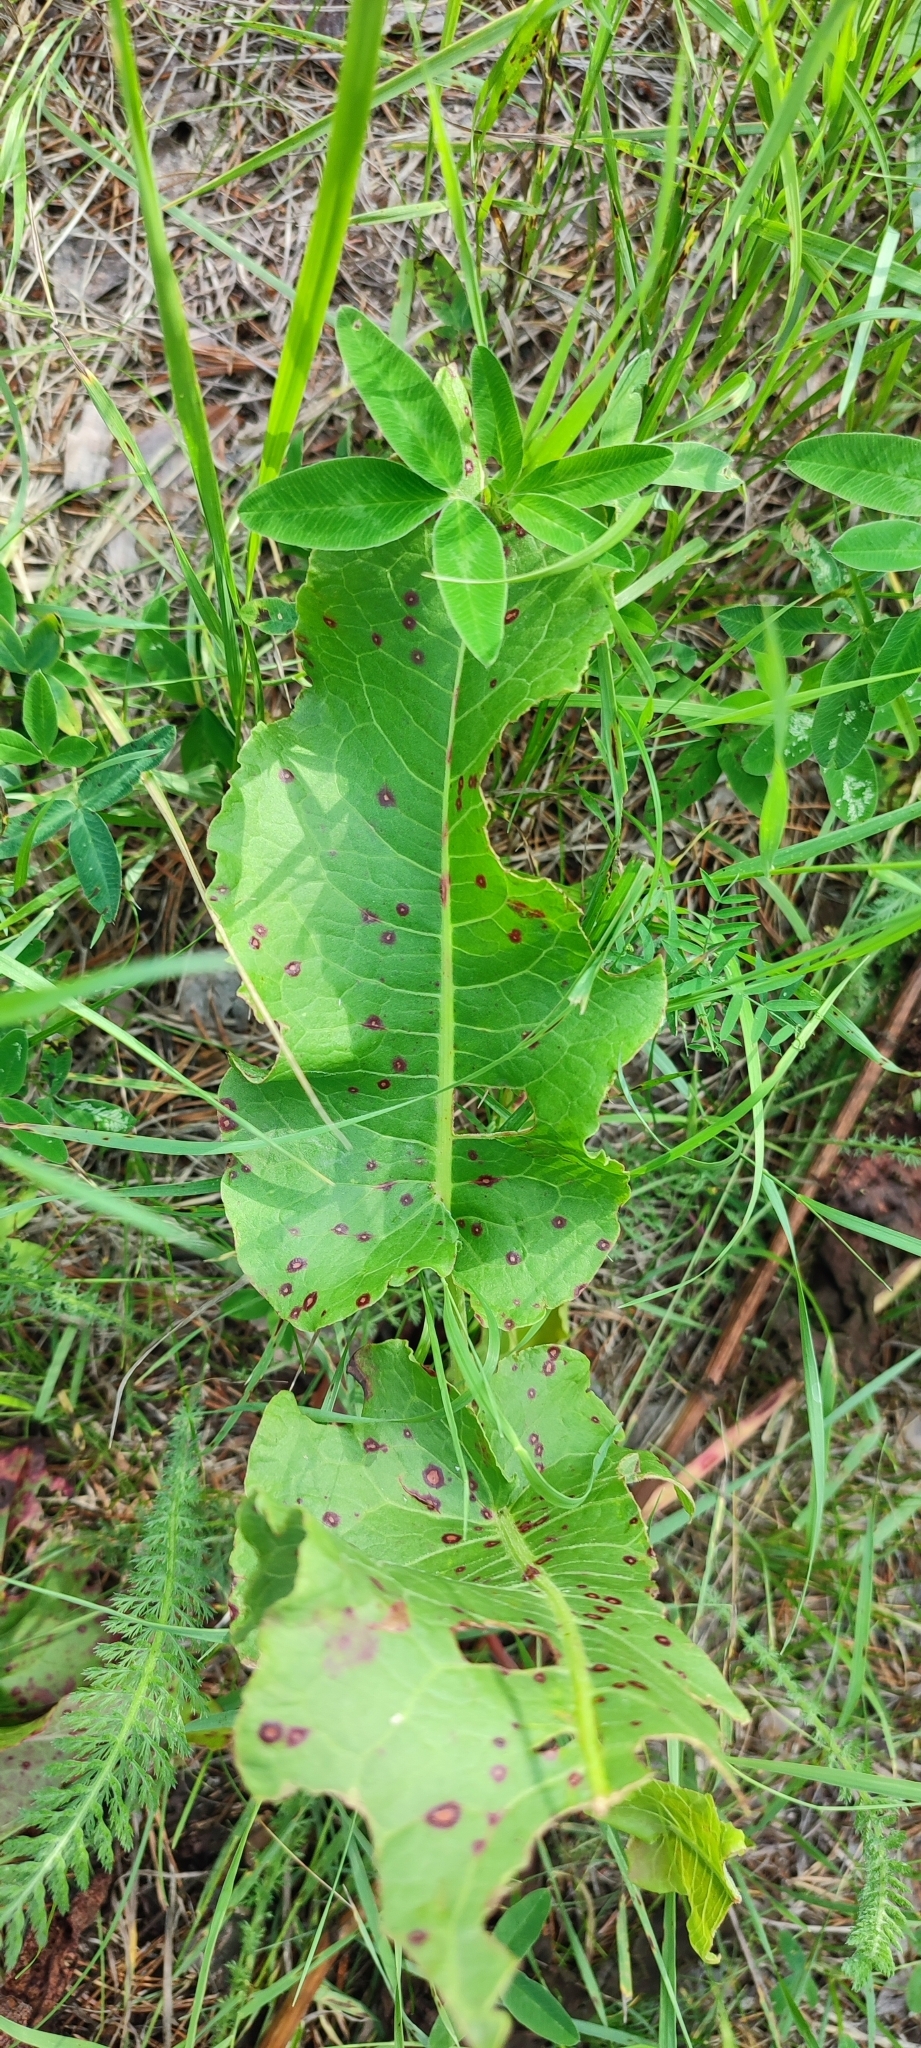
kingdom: Plantae
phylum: Tracheophyta
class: Magnoliopsida
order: Caryophyllales
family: Polygonaceae
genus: Rumex
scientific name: Rumex confertus
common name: Russian dock
